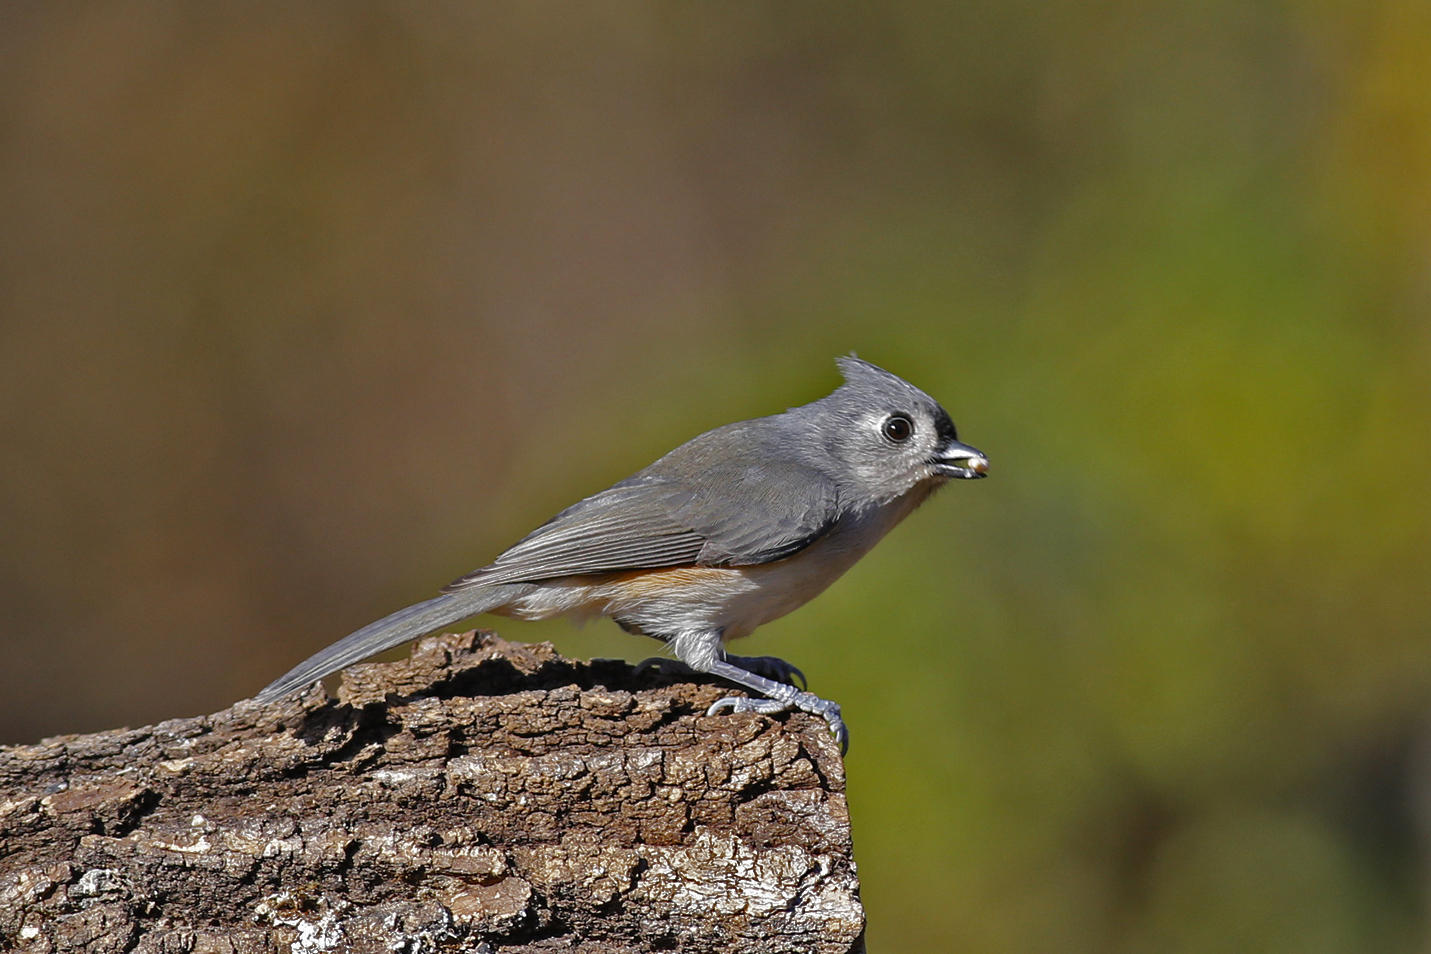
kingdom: Animalia
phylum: Chordata
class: Aves
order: Passeriformes
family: Paridae
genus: Baeolophus
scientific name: Baeolophus bicolor
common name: Tufted titmouse
